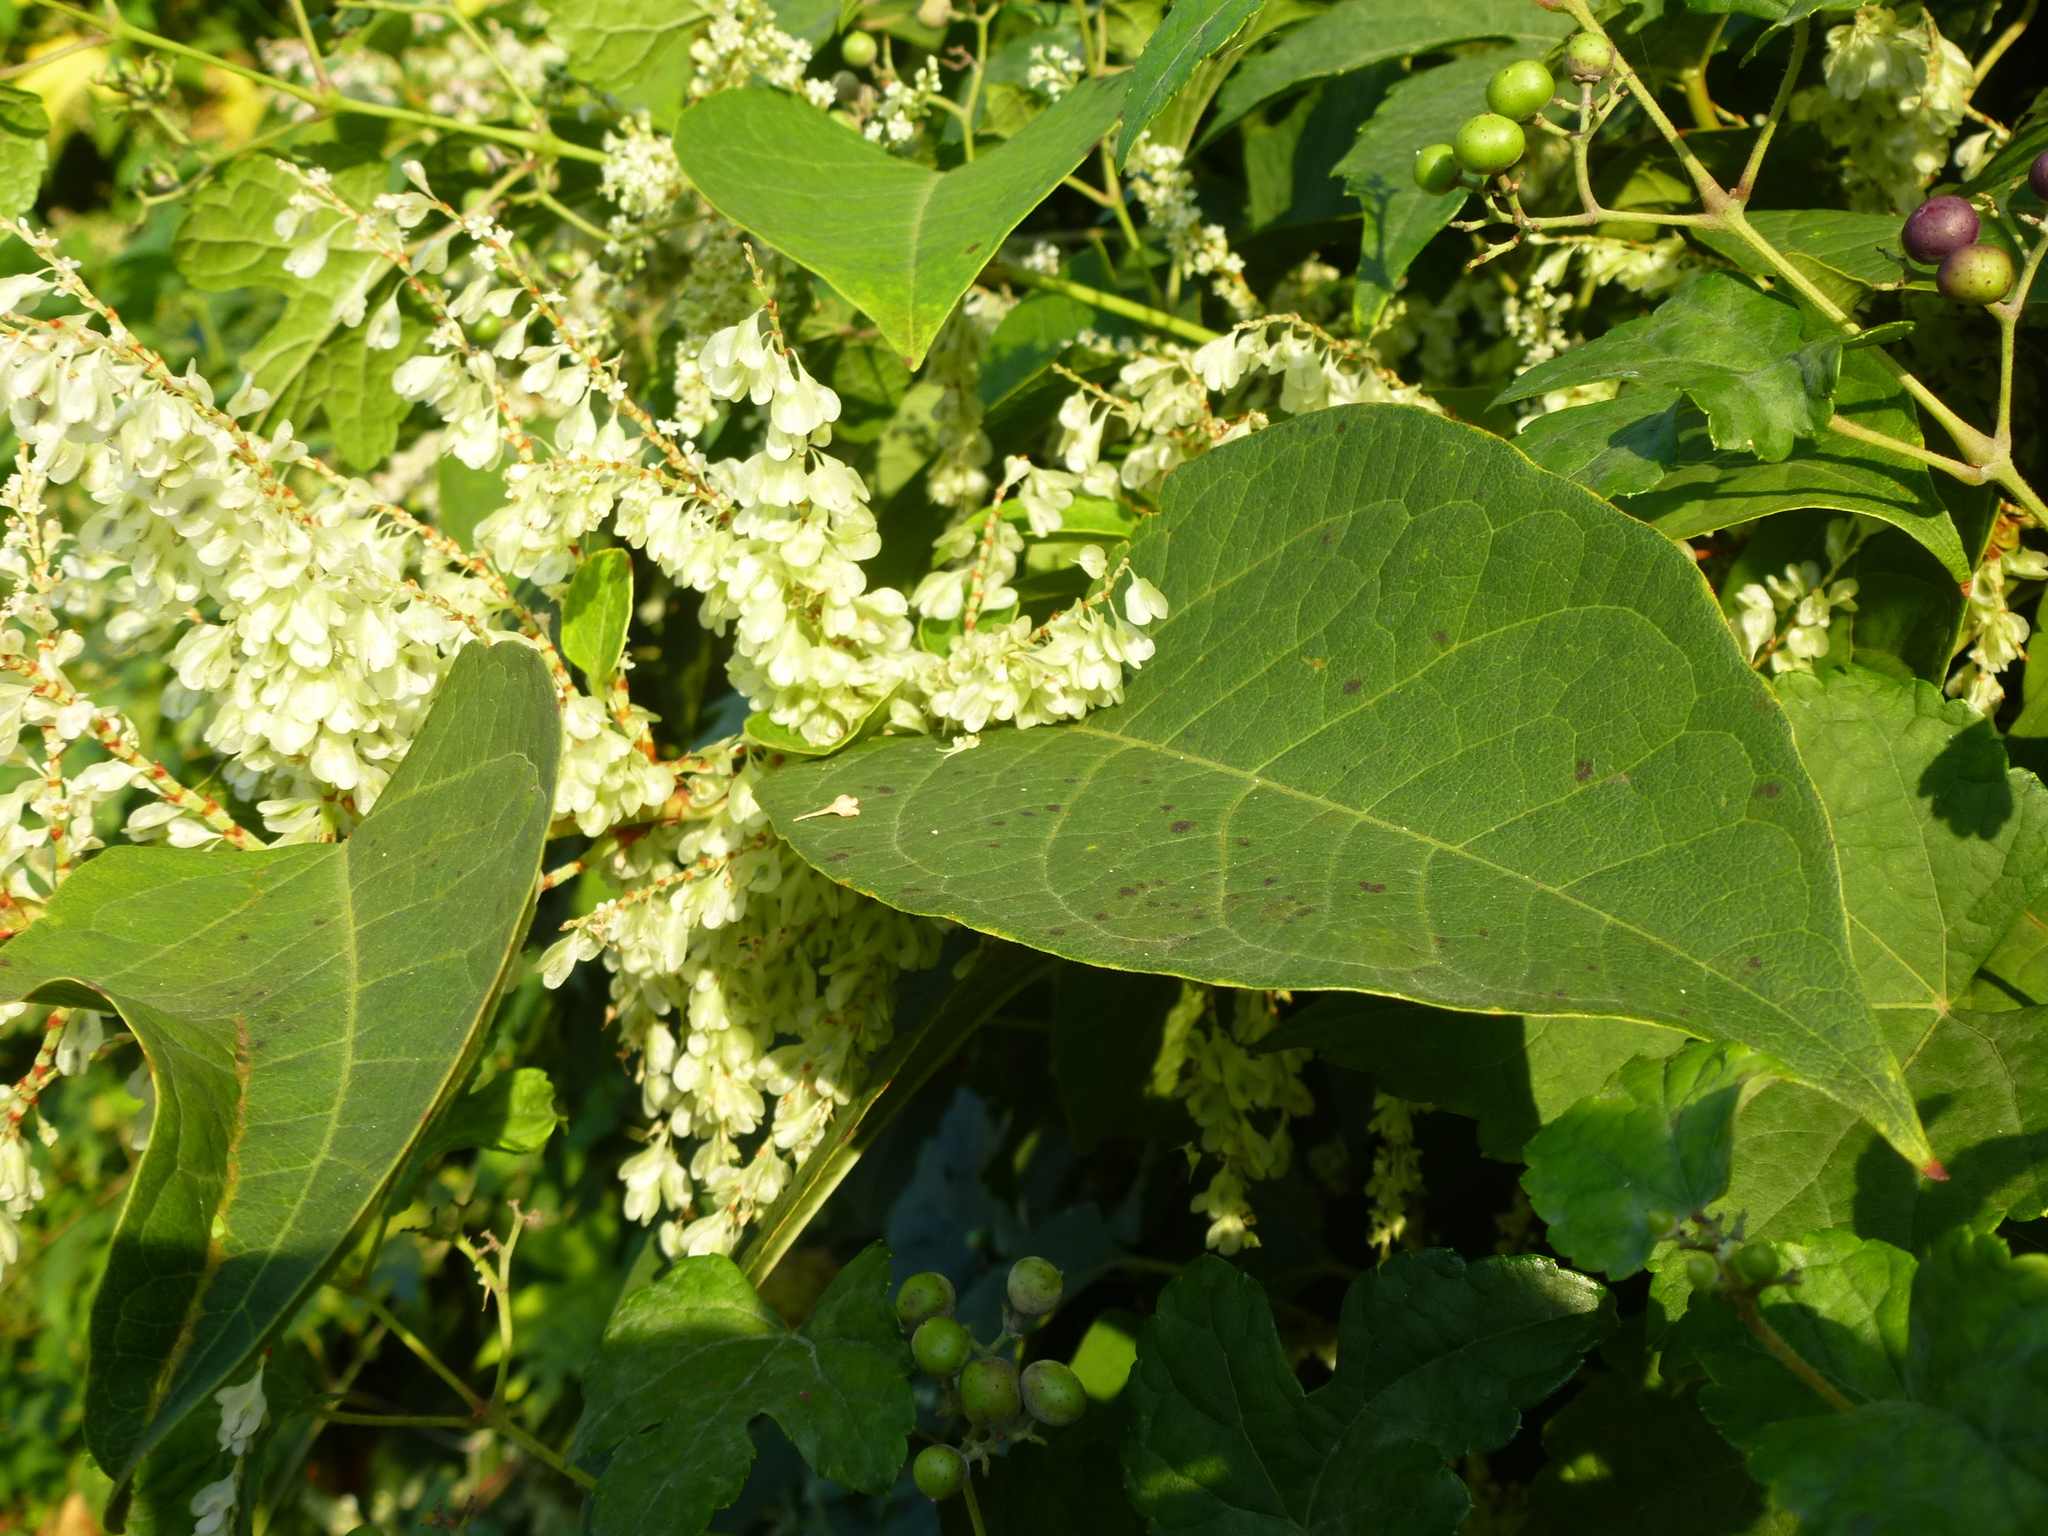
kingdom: Plantae
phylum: Tracheophyta
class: Magnoliopsida
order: Caryophyllales
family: Polygonaceae
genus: Reynoutria
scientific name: Reynoutria japonica
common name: Japanese knotweed
